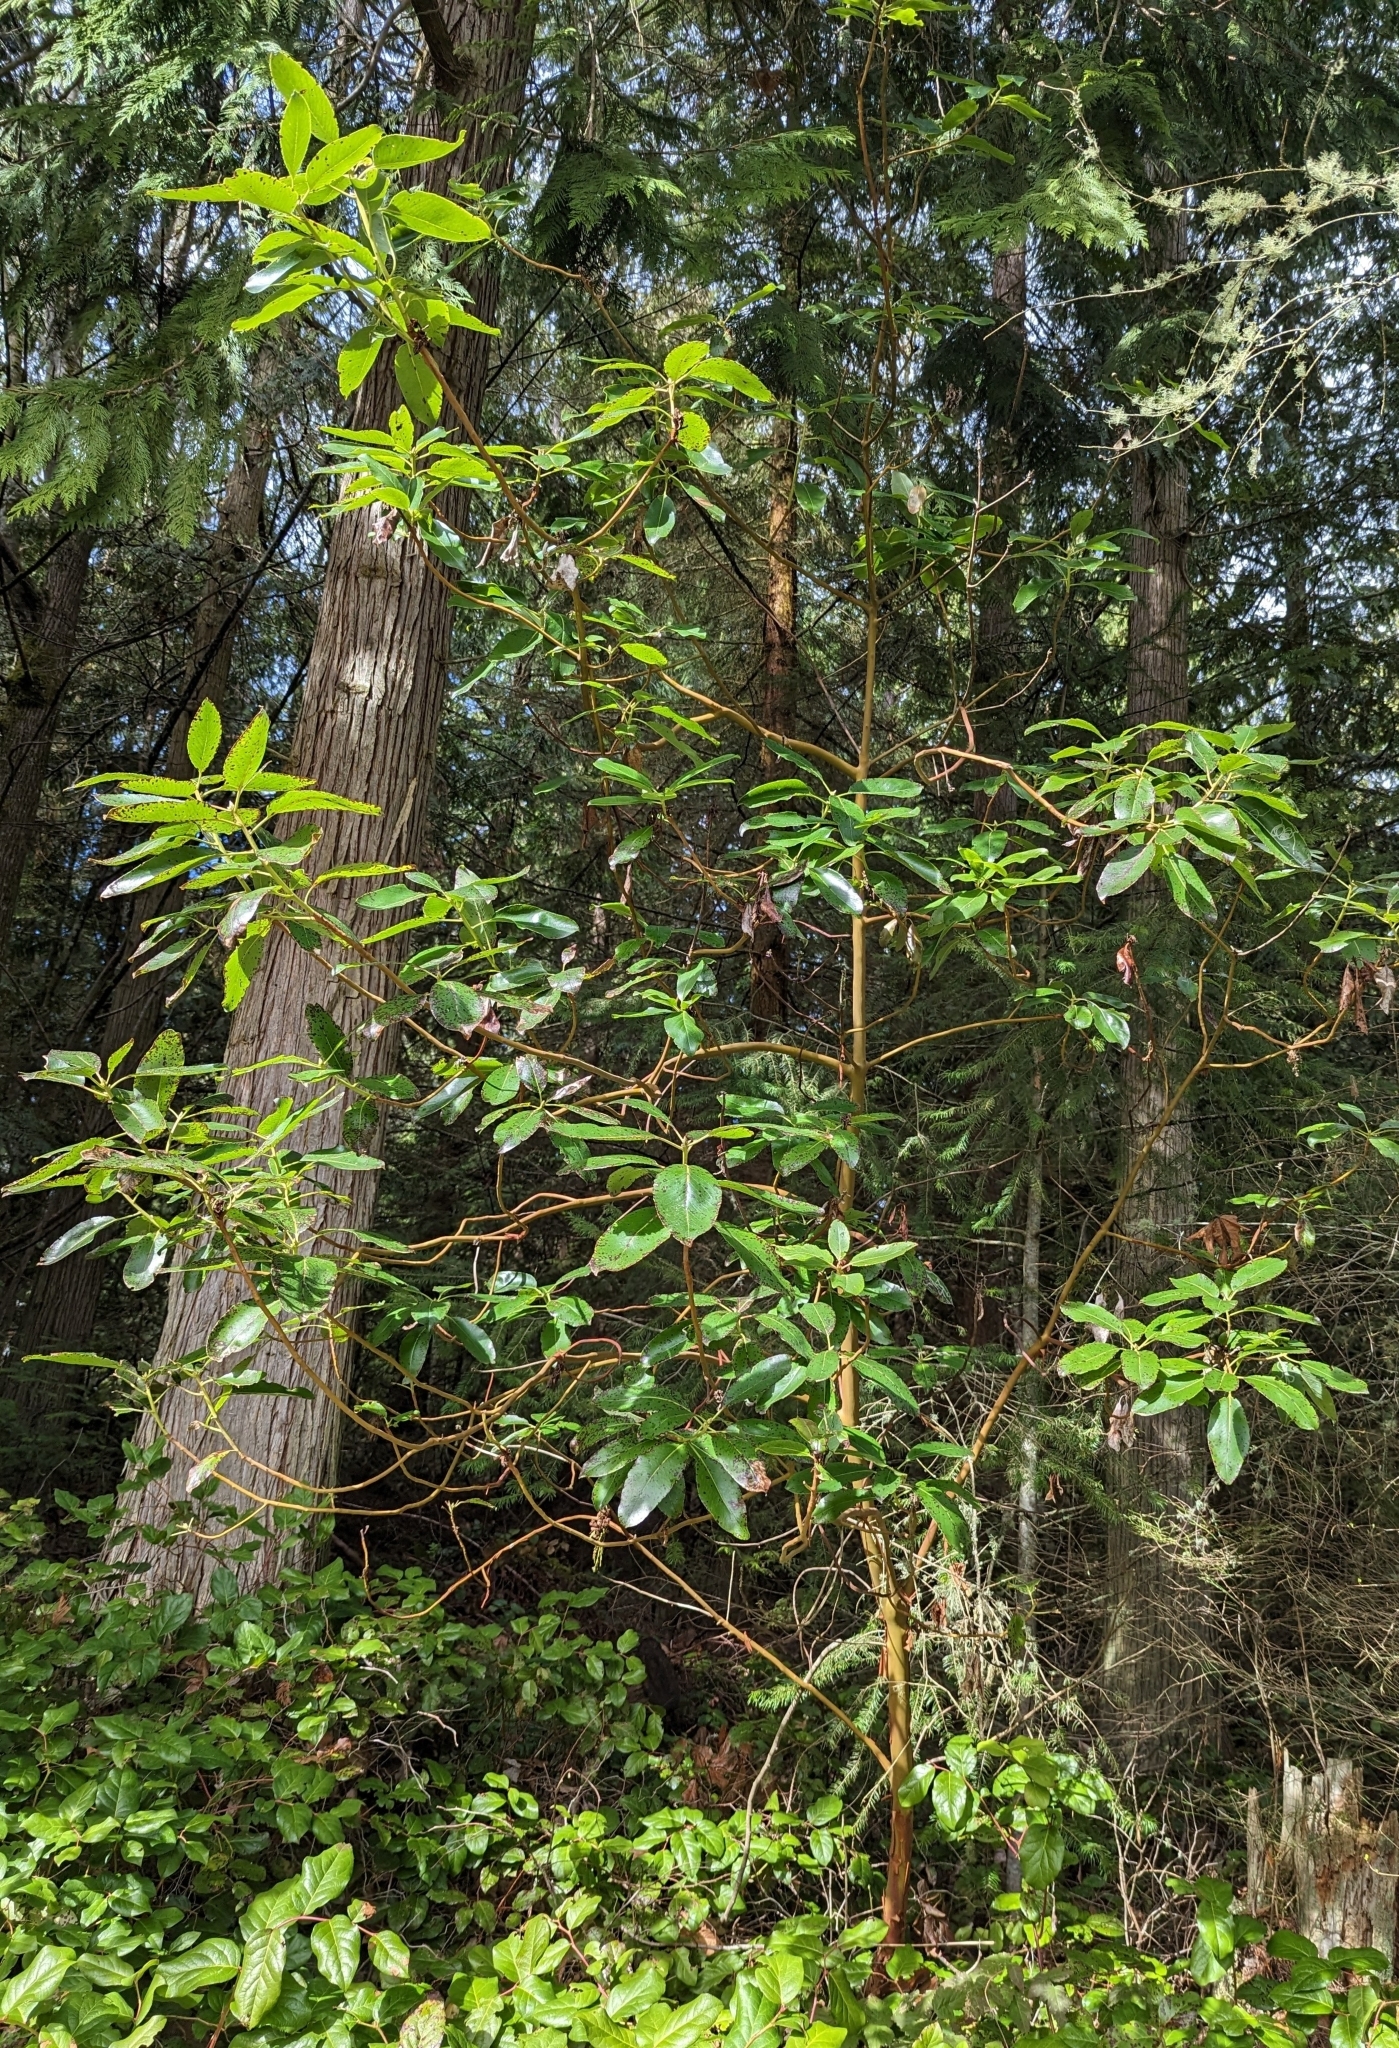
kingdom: Plantae
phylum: Tracheophyta
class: Magnoliopsida
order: Ericales
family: Ericaceae
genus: Arbutus
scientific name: Arbutus menziesii
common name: Pacific madrone
